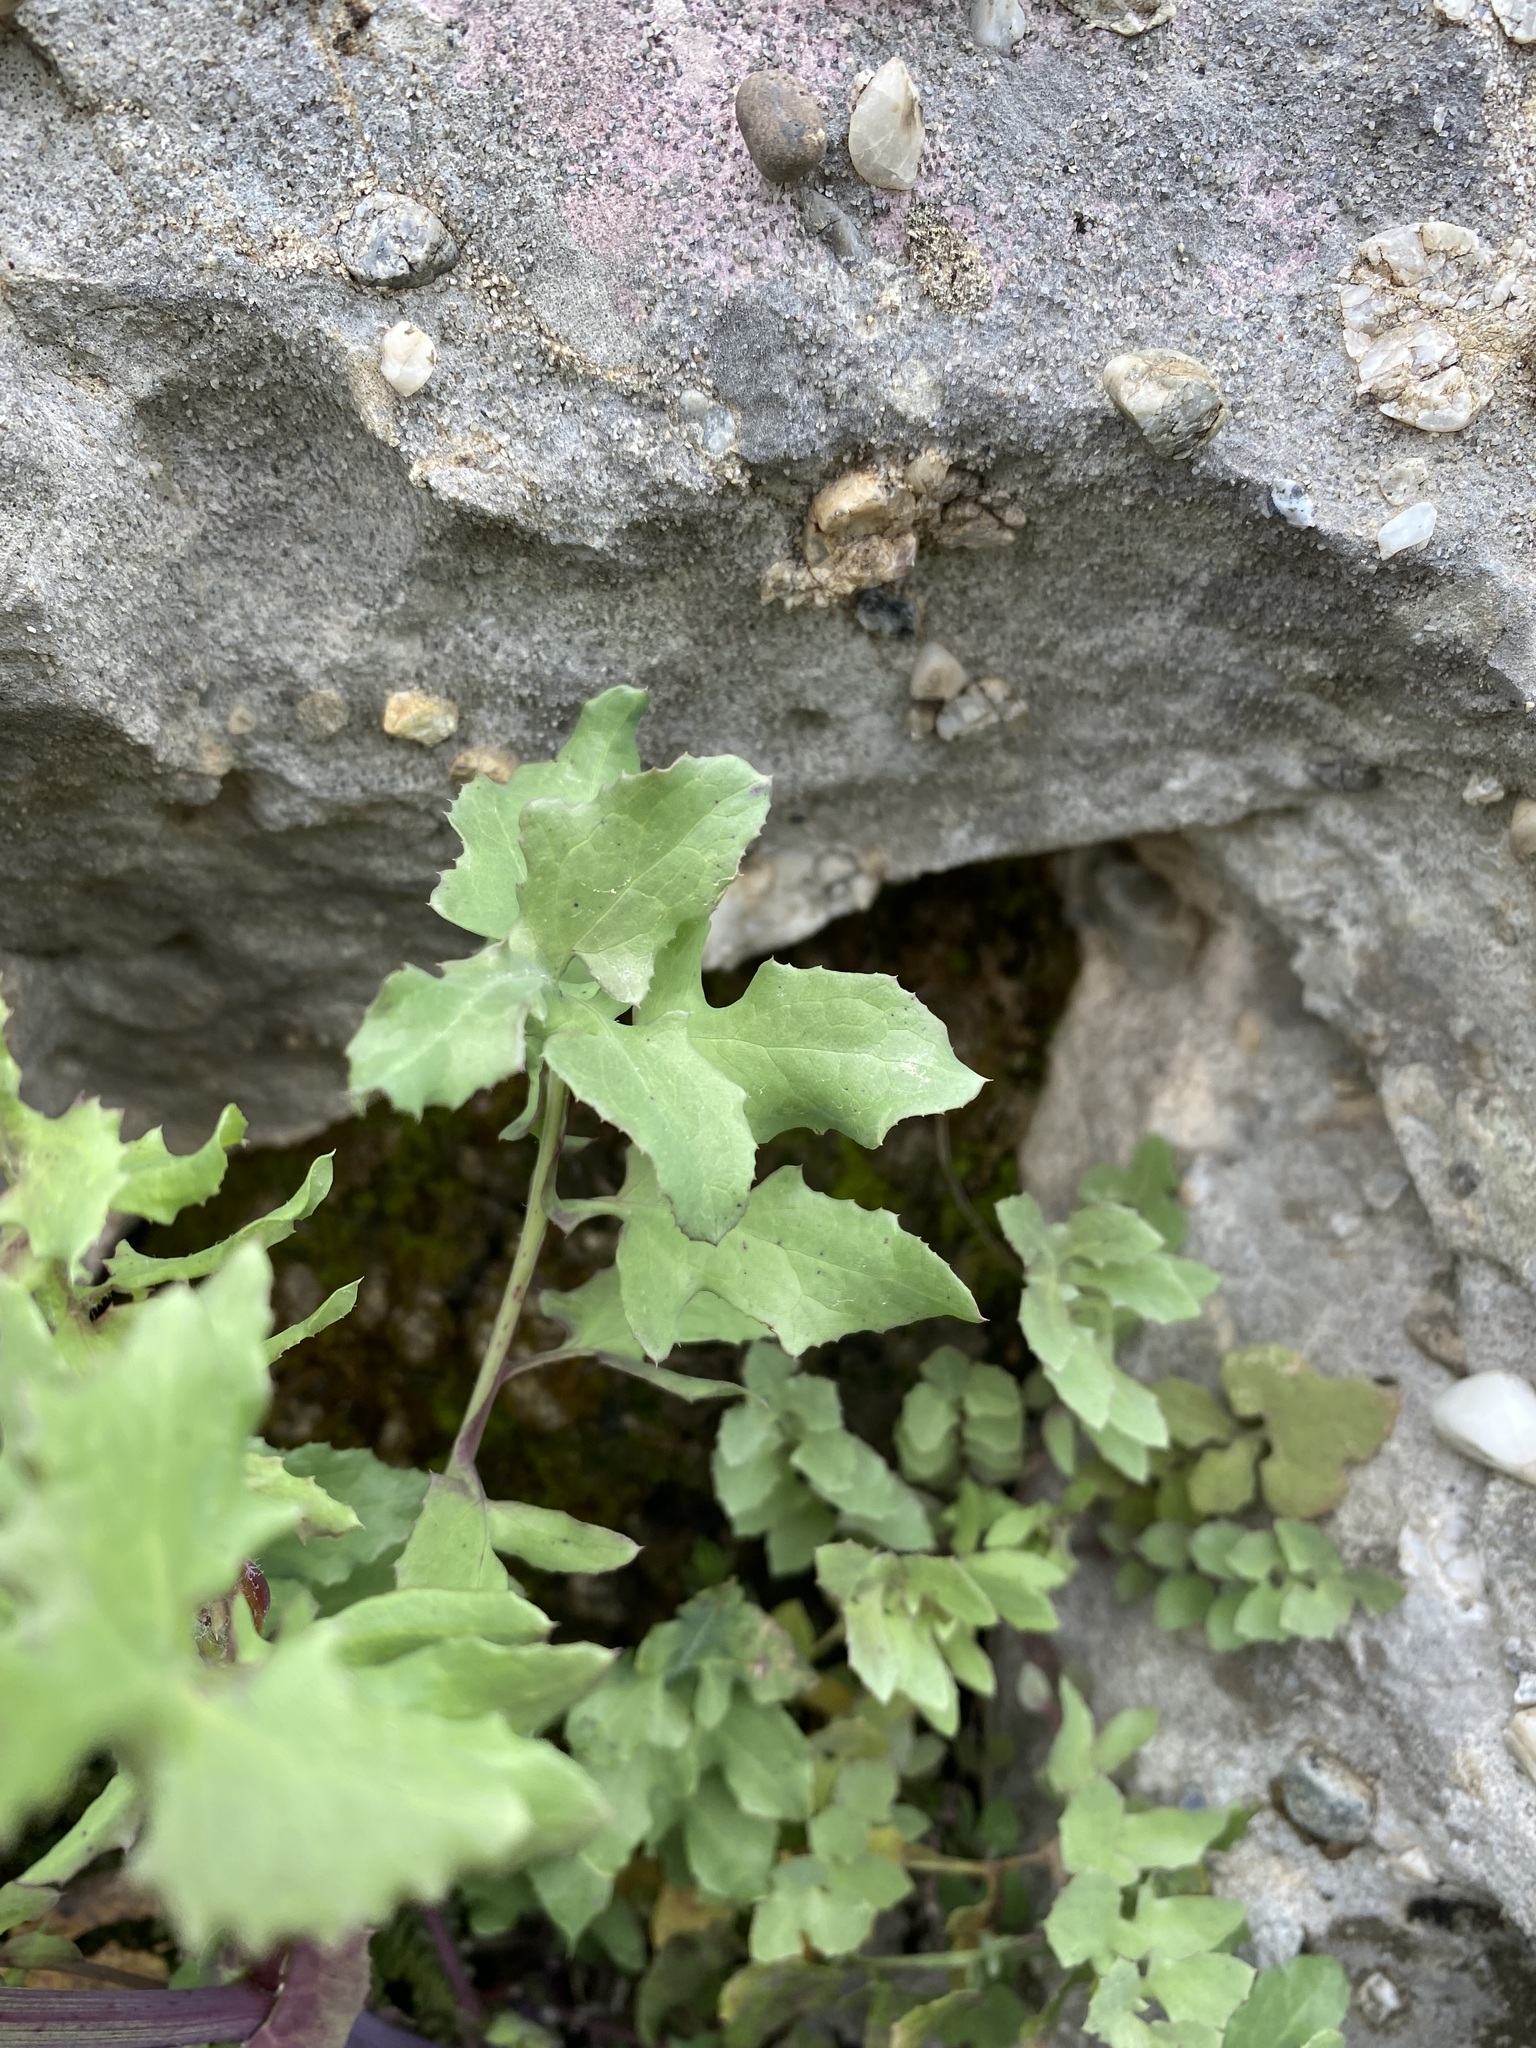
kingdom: Plantae
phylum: Tracheophyta
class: Magnoliopsida
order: Asterales
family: Asteraceae
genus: Sonchus
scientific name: Sonchus tenerrimus
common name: Clammy sowthistle
